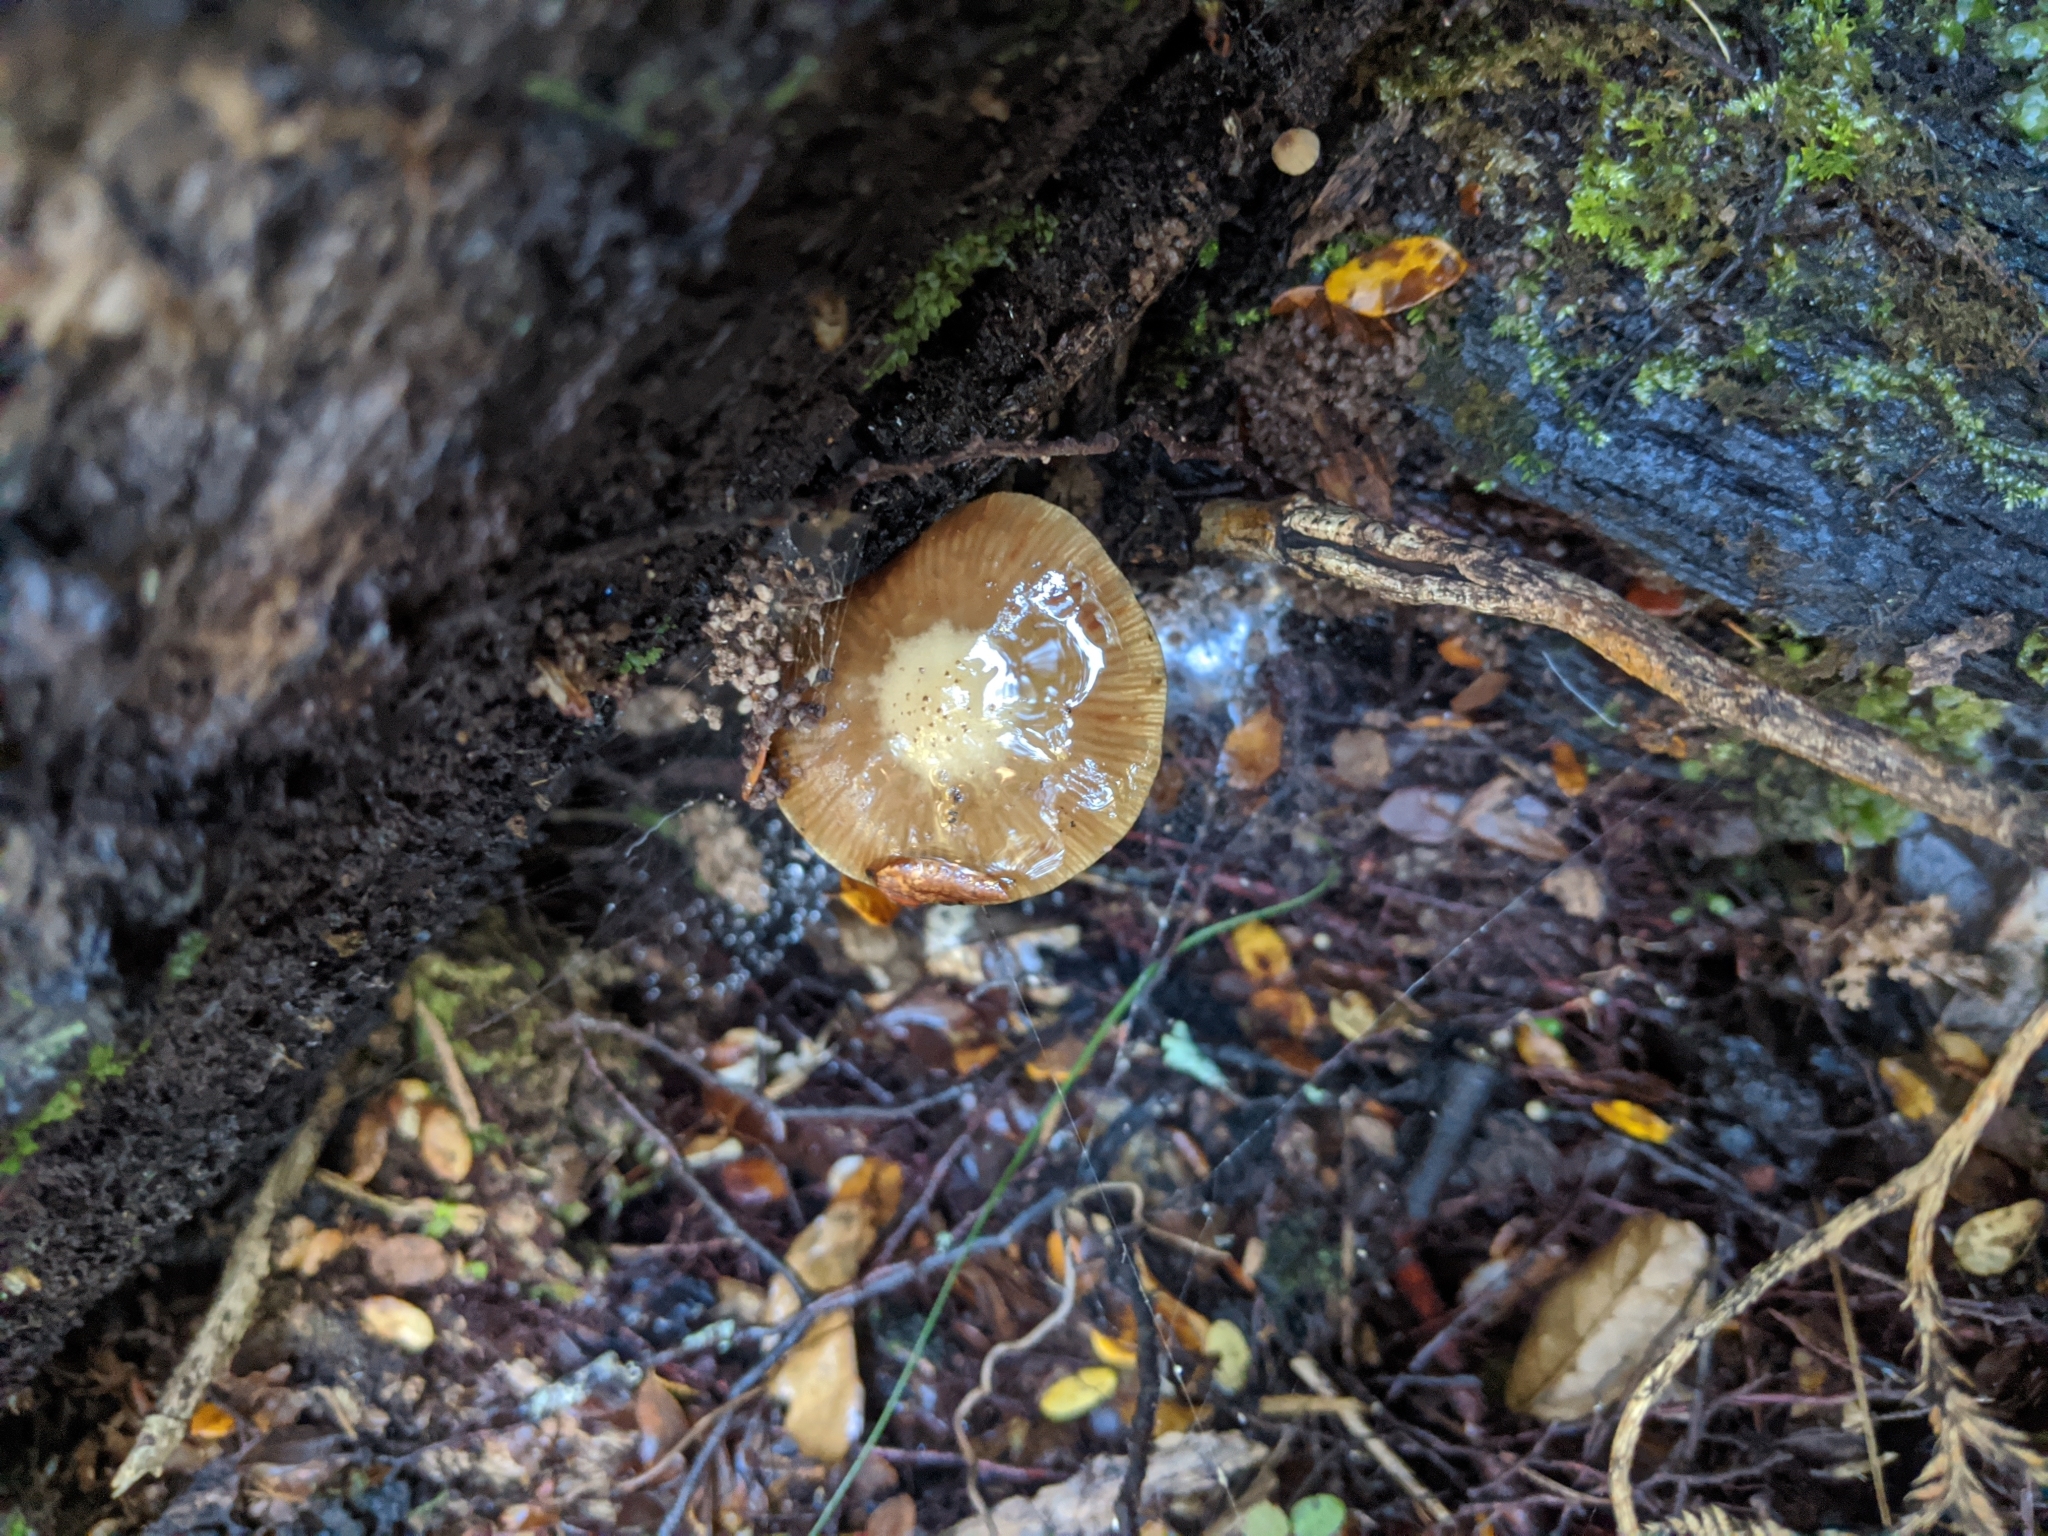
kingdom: Fungi
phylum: Basidiomycota
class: Agaricomycetes
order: Agaricales
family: Physalacriaceae
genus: Armillaria
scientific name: Armillaria novae-zelandiae
